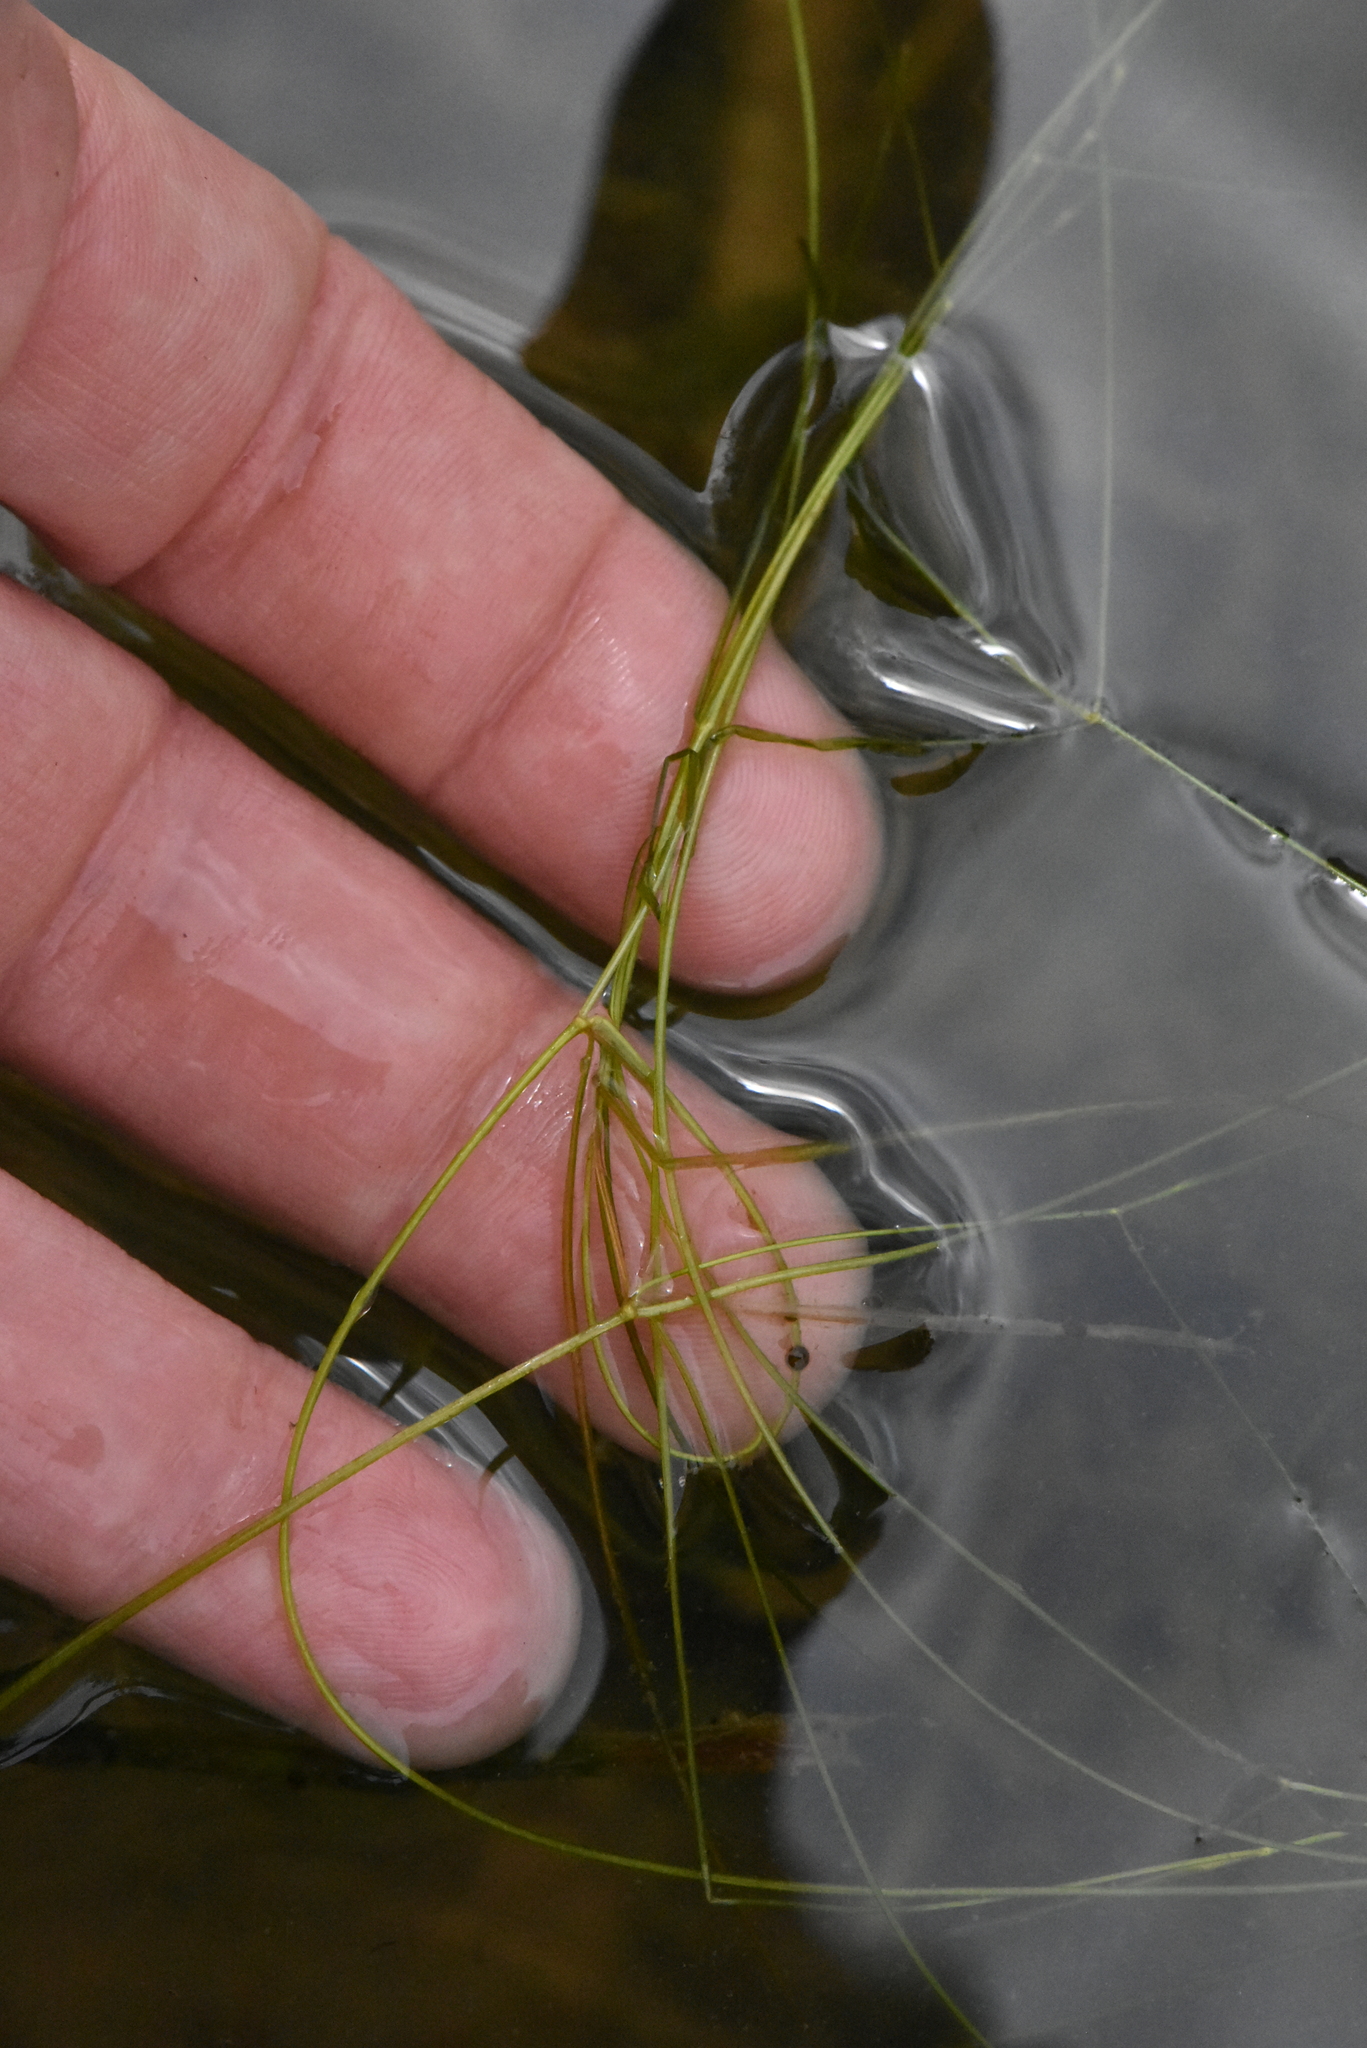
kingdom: Plantae
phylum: Tracheophyta
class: Liliopsida
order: Alismatales
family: Potamogetonaceae
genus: Potamogeton
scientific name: Potamogeton trichoides
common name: Hairlike pondweed
